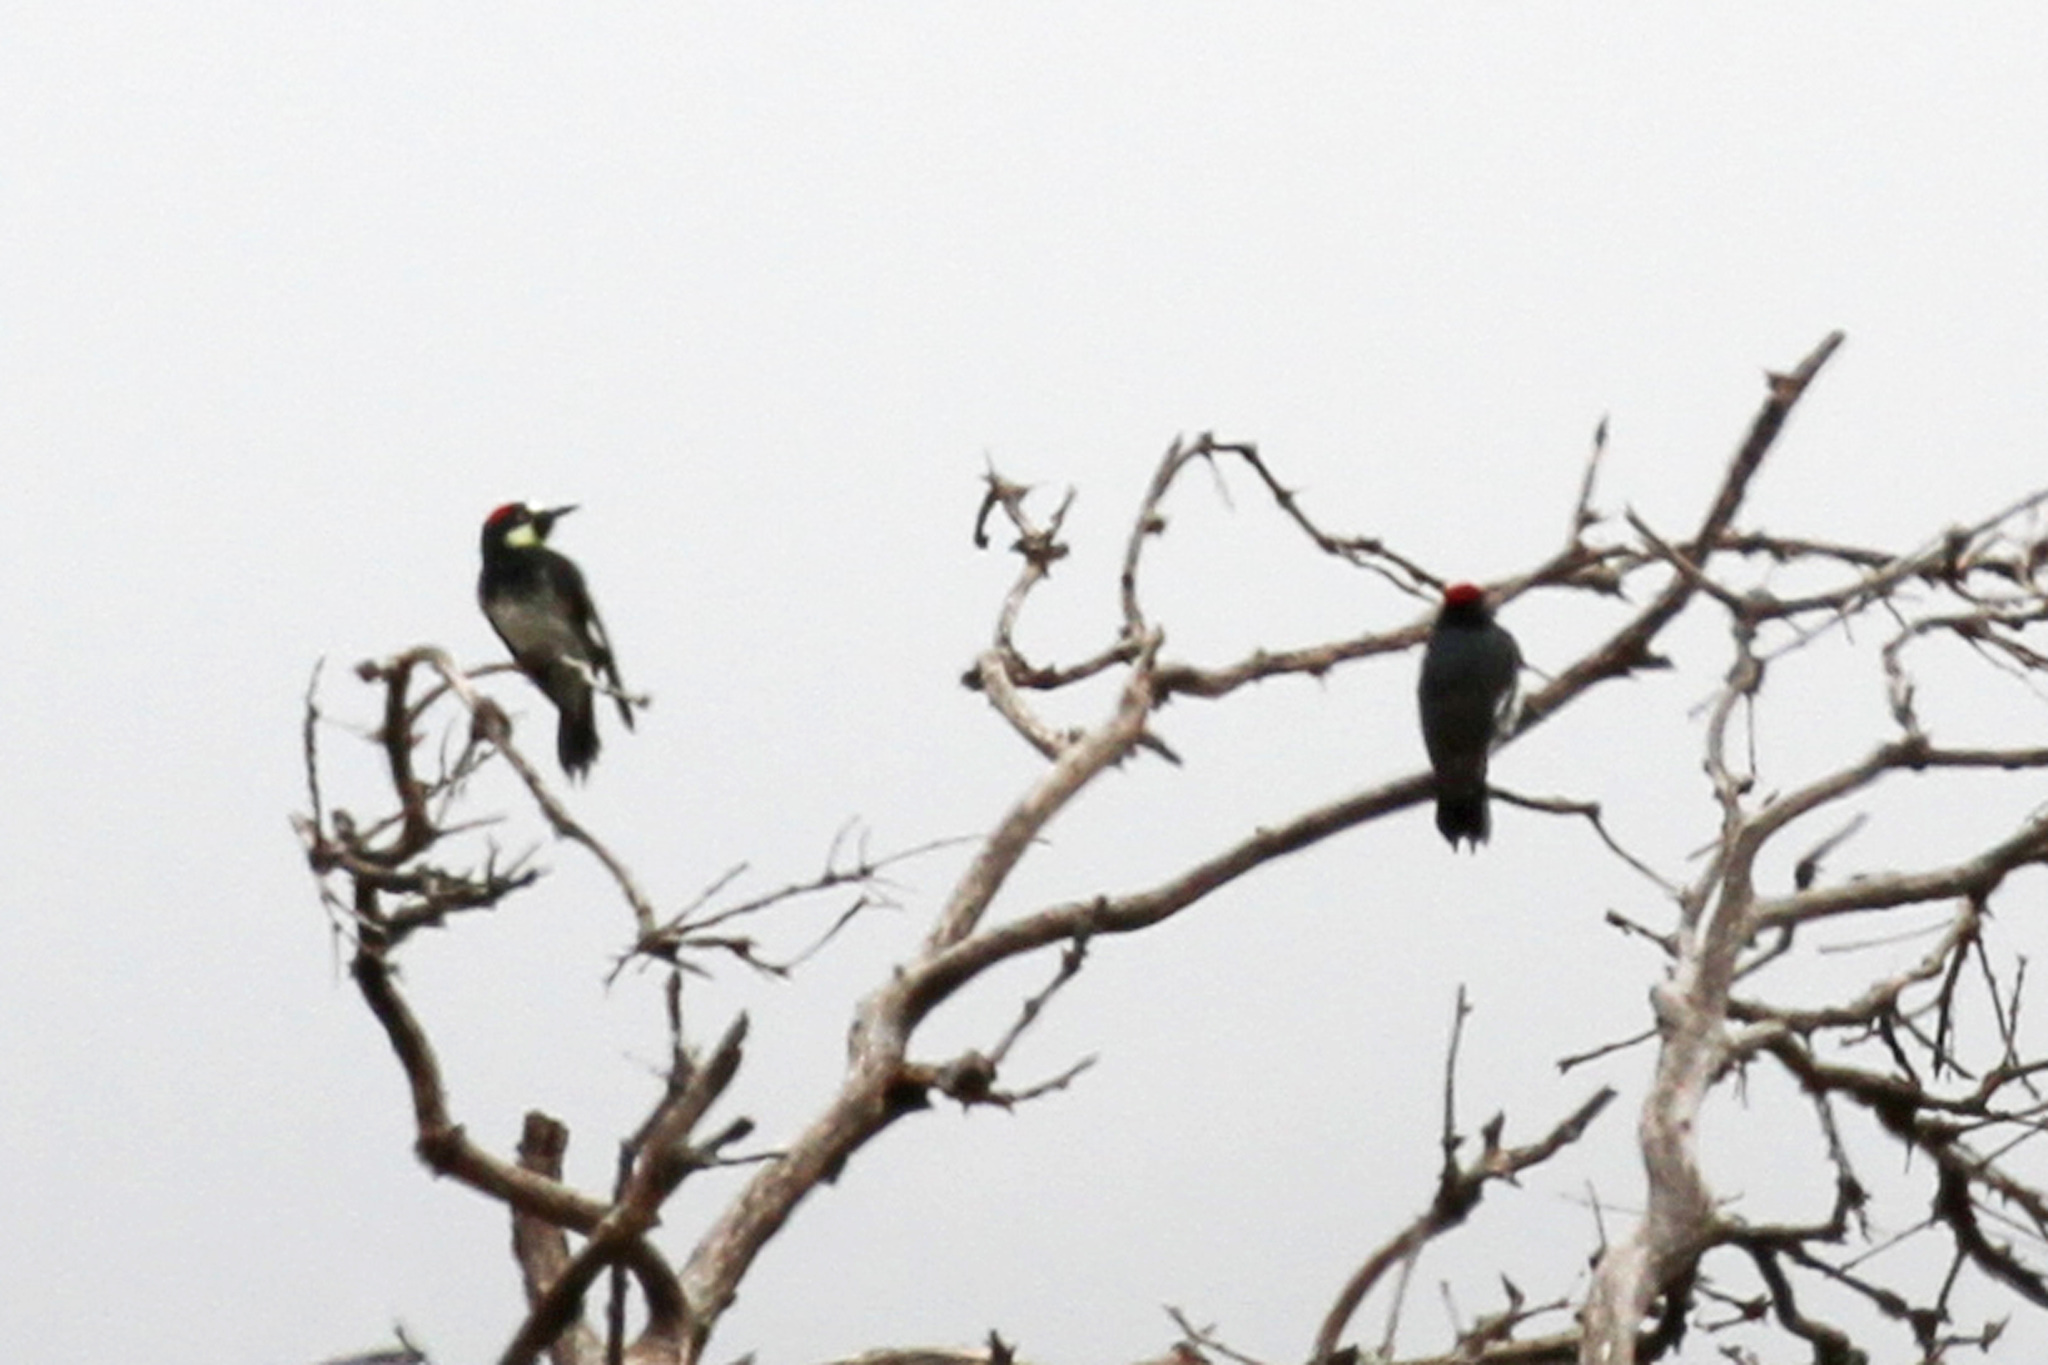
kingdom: Animalia
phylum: Chordata
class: Aves
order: Piciformes
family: Picidae
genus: Melanerpes
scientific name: Melanerpes formicivorus
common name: Acorn woodpecker
